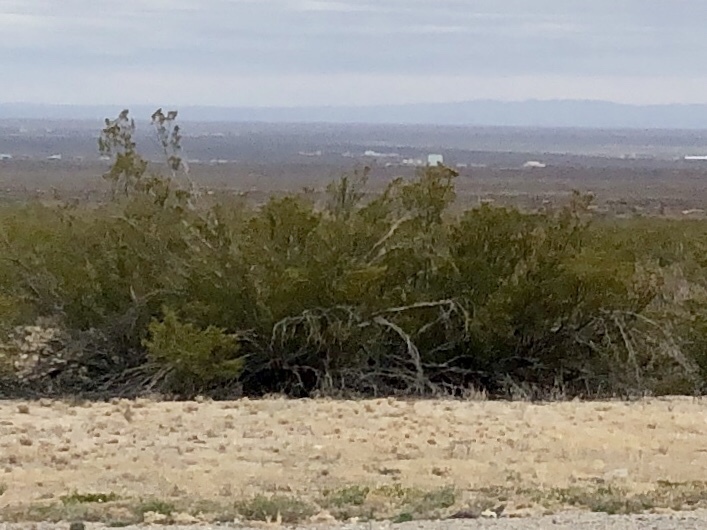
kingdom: Plantae
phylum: Tracheophyta
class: Magnoliopsida
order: Zygophyllales
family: Zygophyllaceae
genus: Larrea
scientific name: Larrea tridentata
